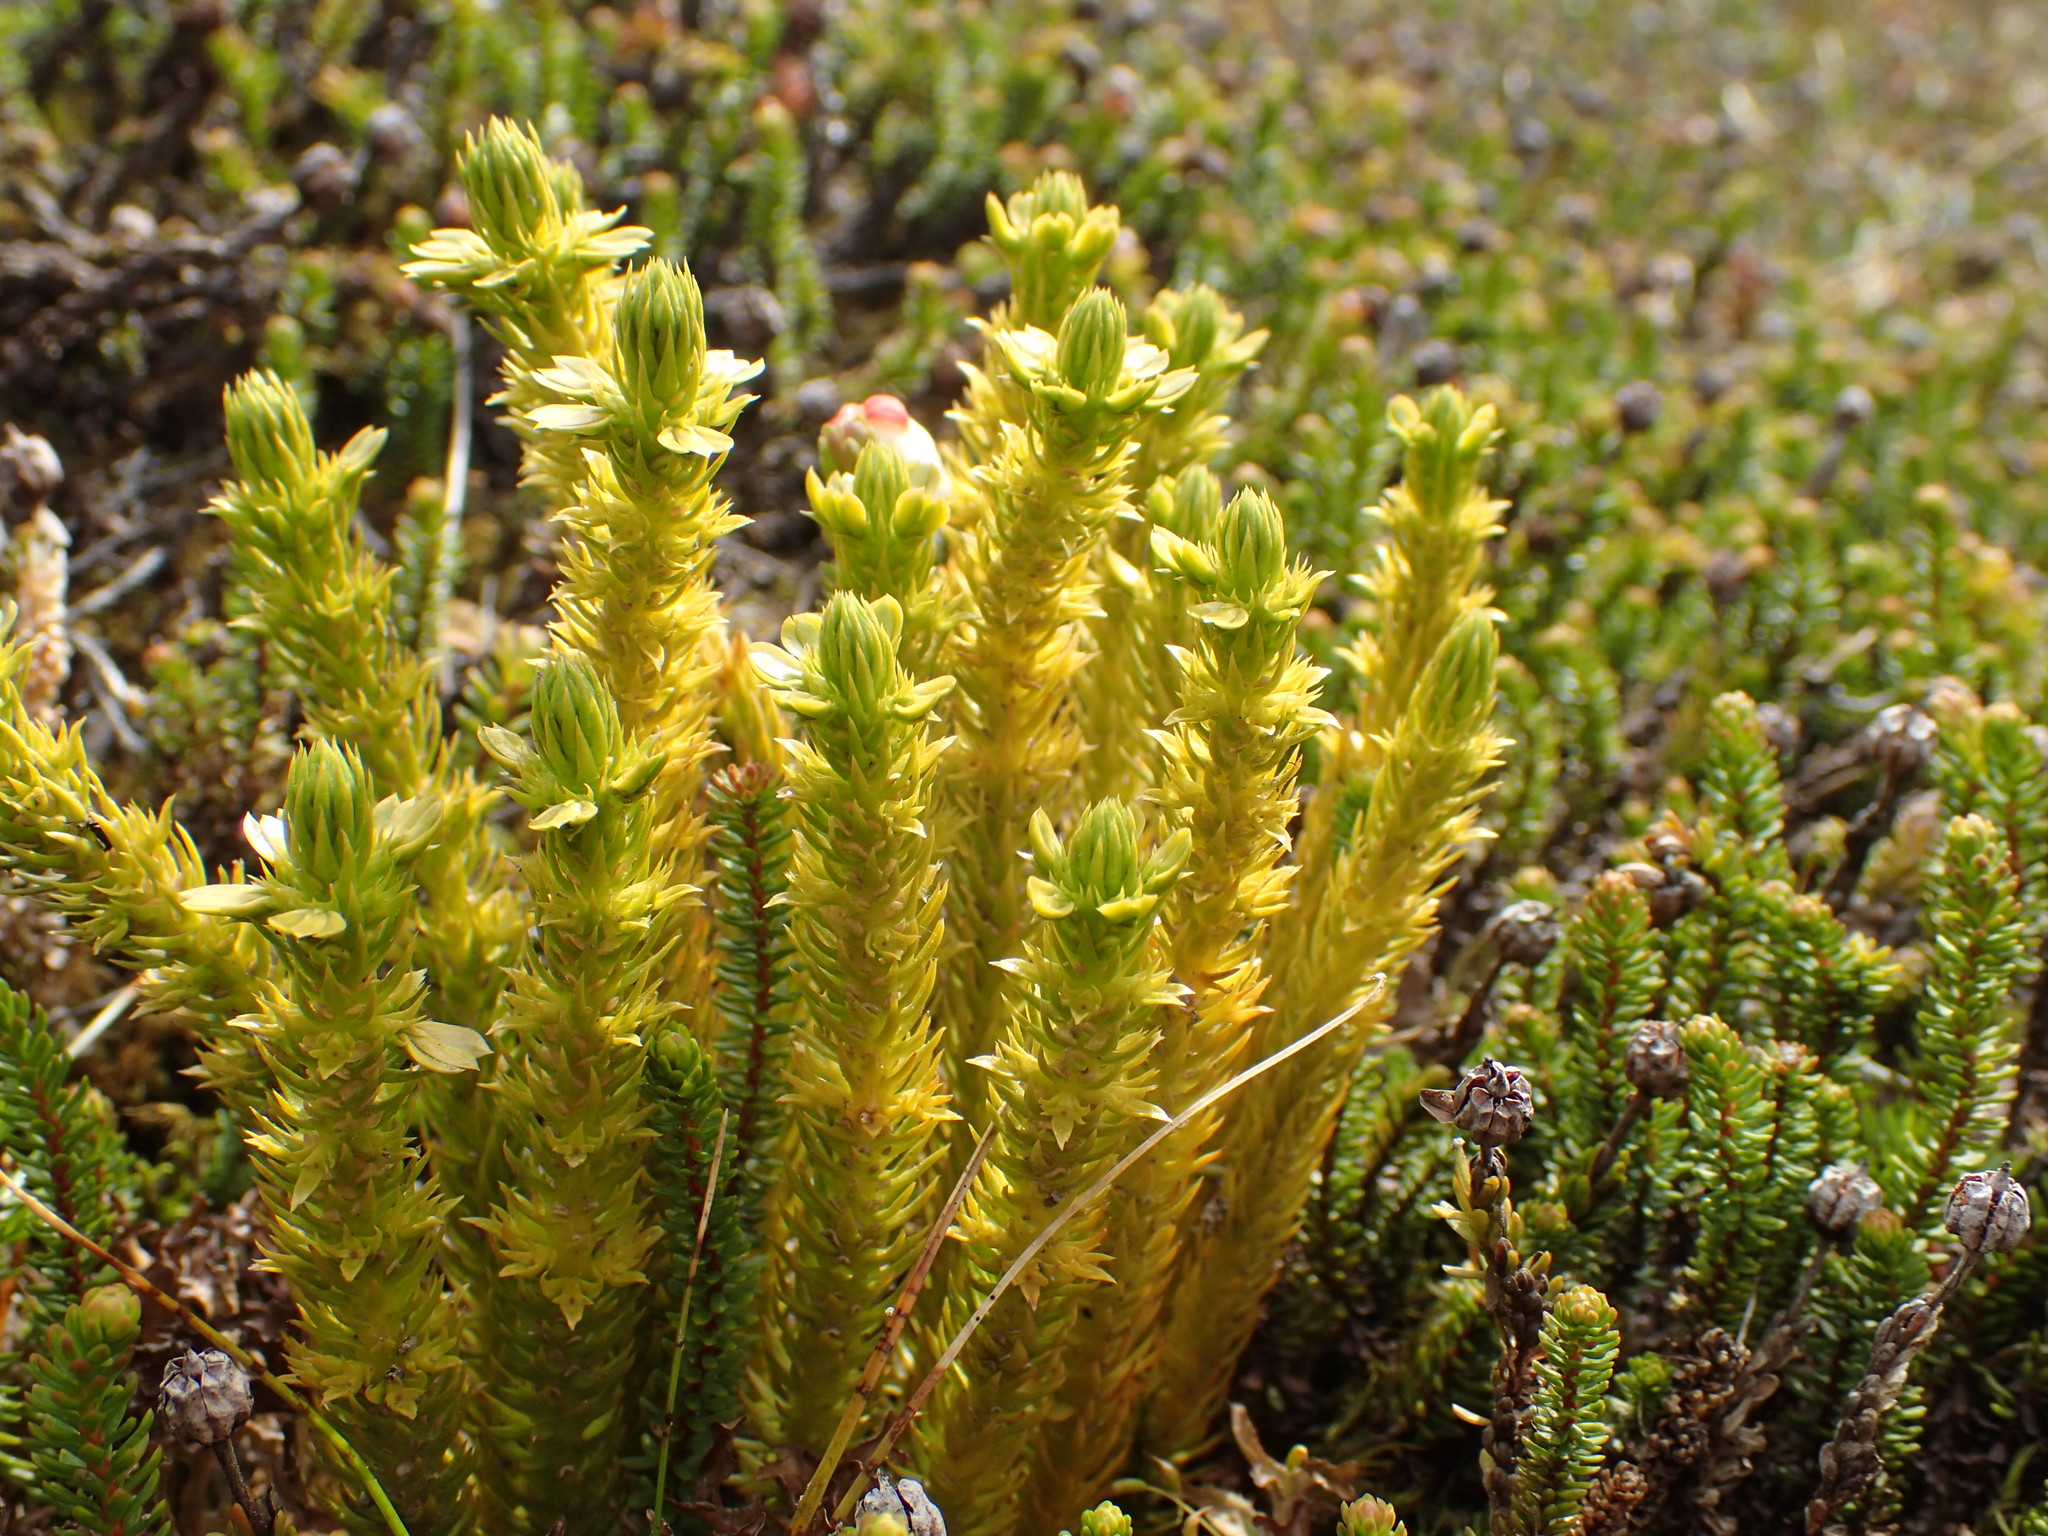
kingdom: Plantae
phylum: Tracheophyta
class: Lycopodiopsida
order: Lycopodiales
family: Lycopodiaceae
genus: Huperzia
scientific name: Huperzia continentalis
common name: Continental firmoss
